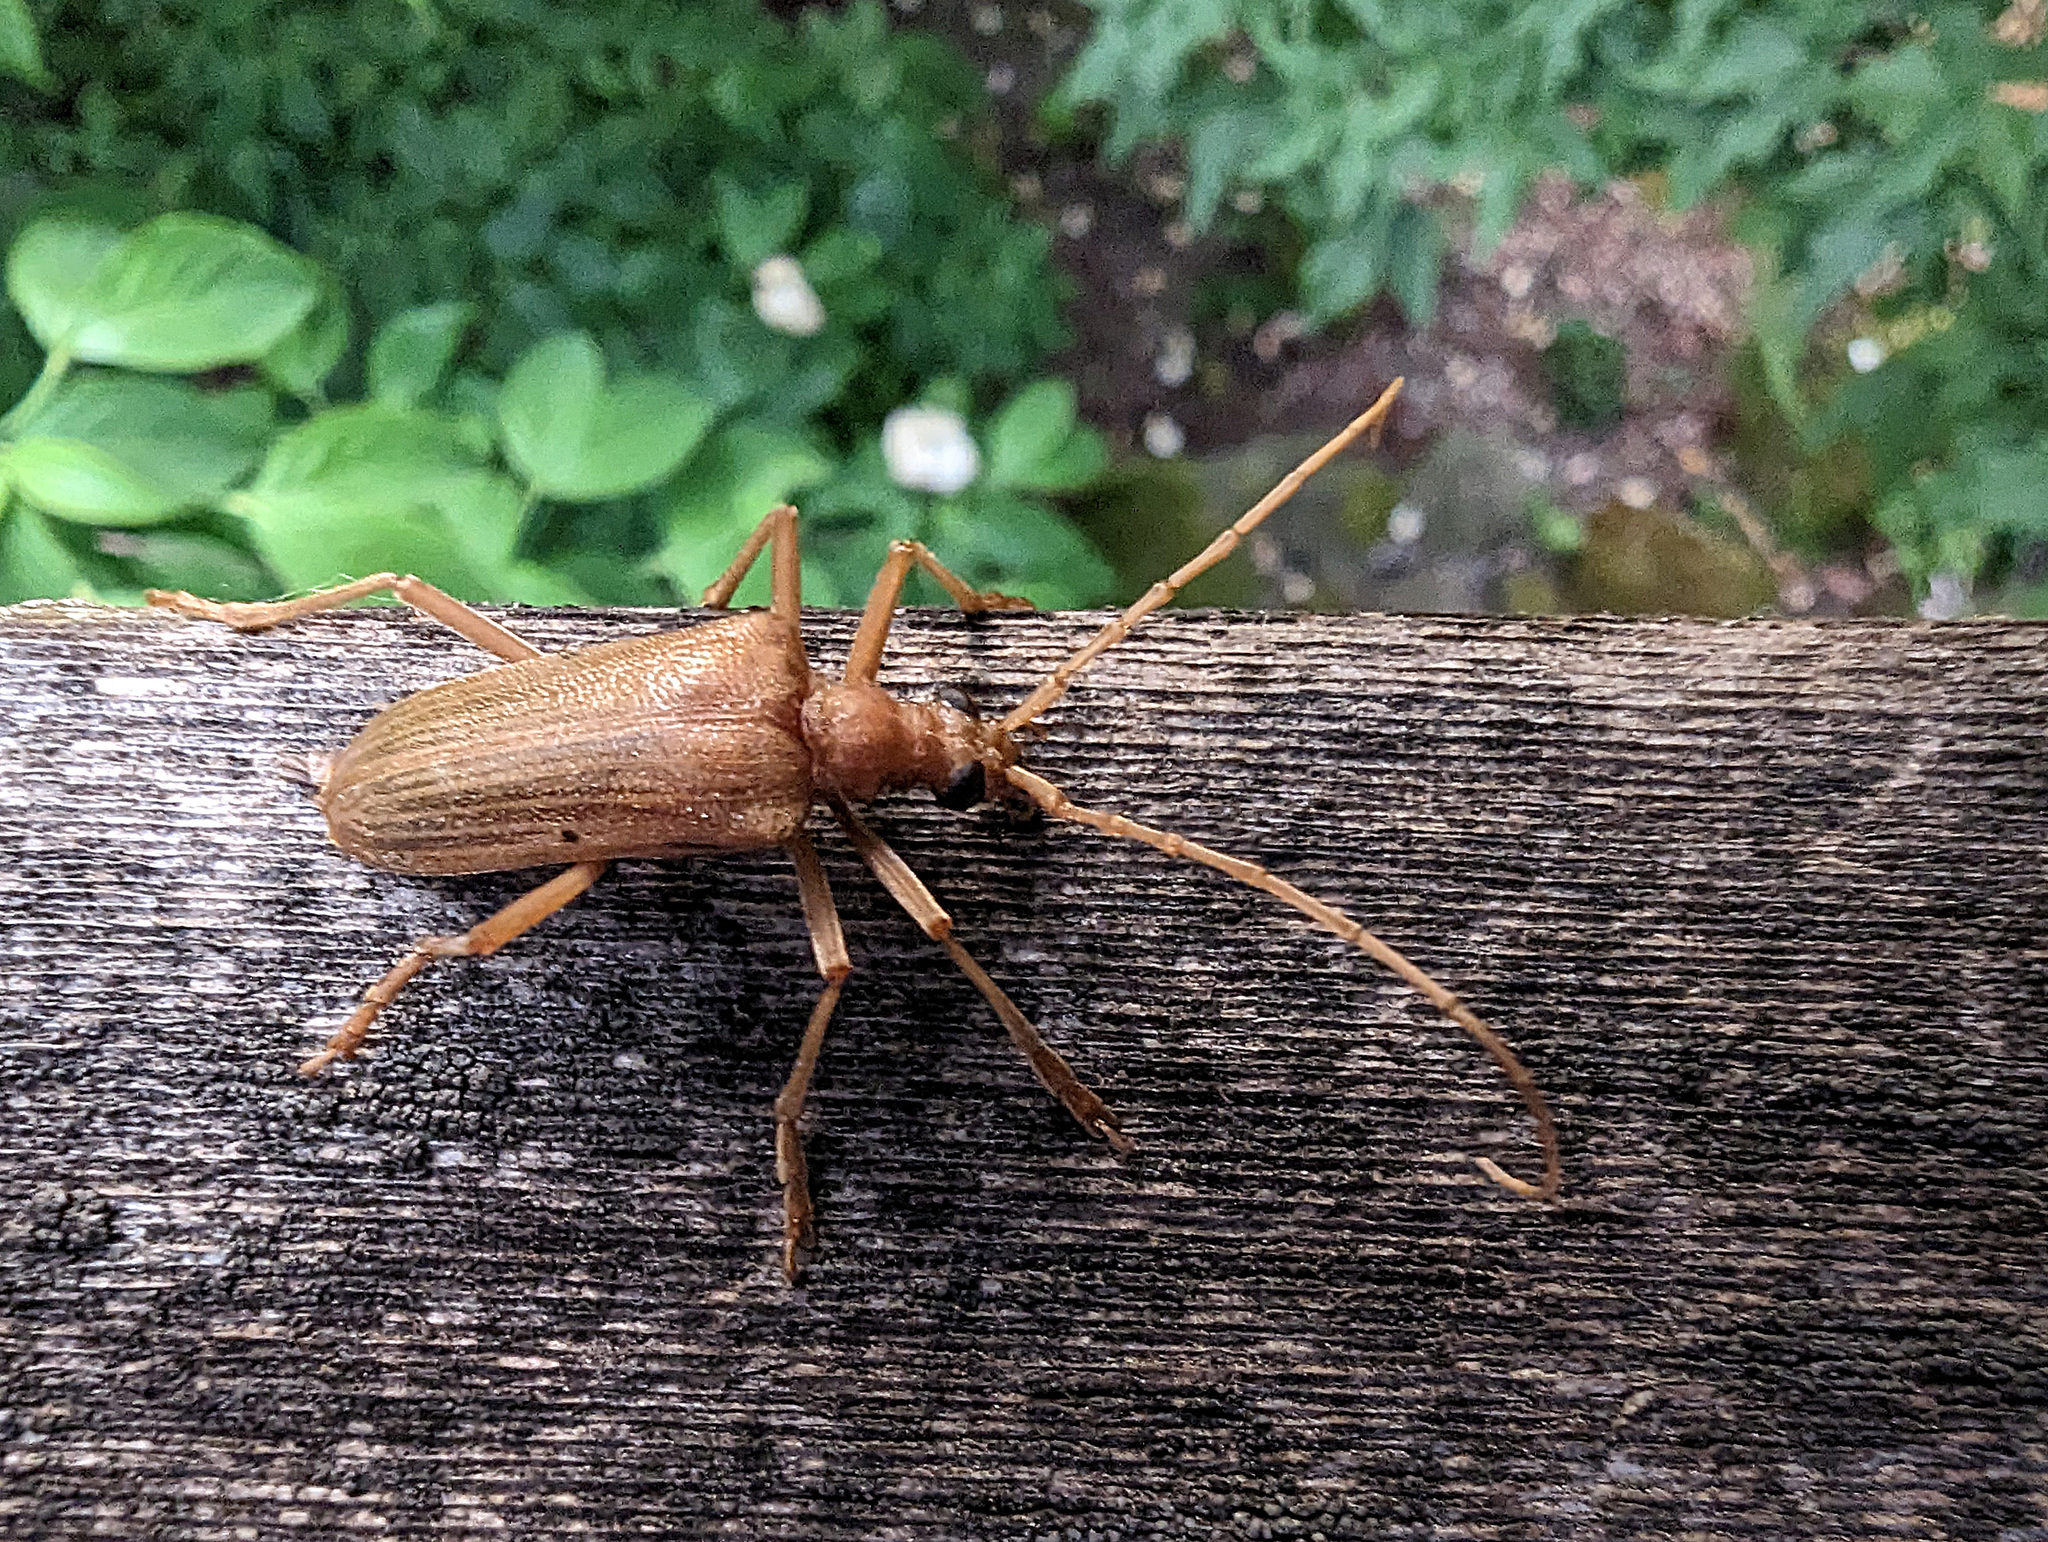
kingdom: Animalia
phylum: Arthropoda
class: Insecta
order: Coleoptera
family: Cerambycidae
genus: Centrodera
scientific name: Centrodera spurca
